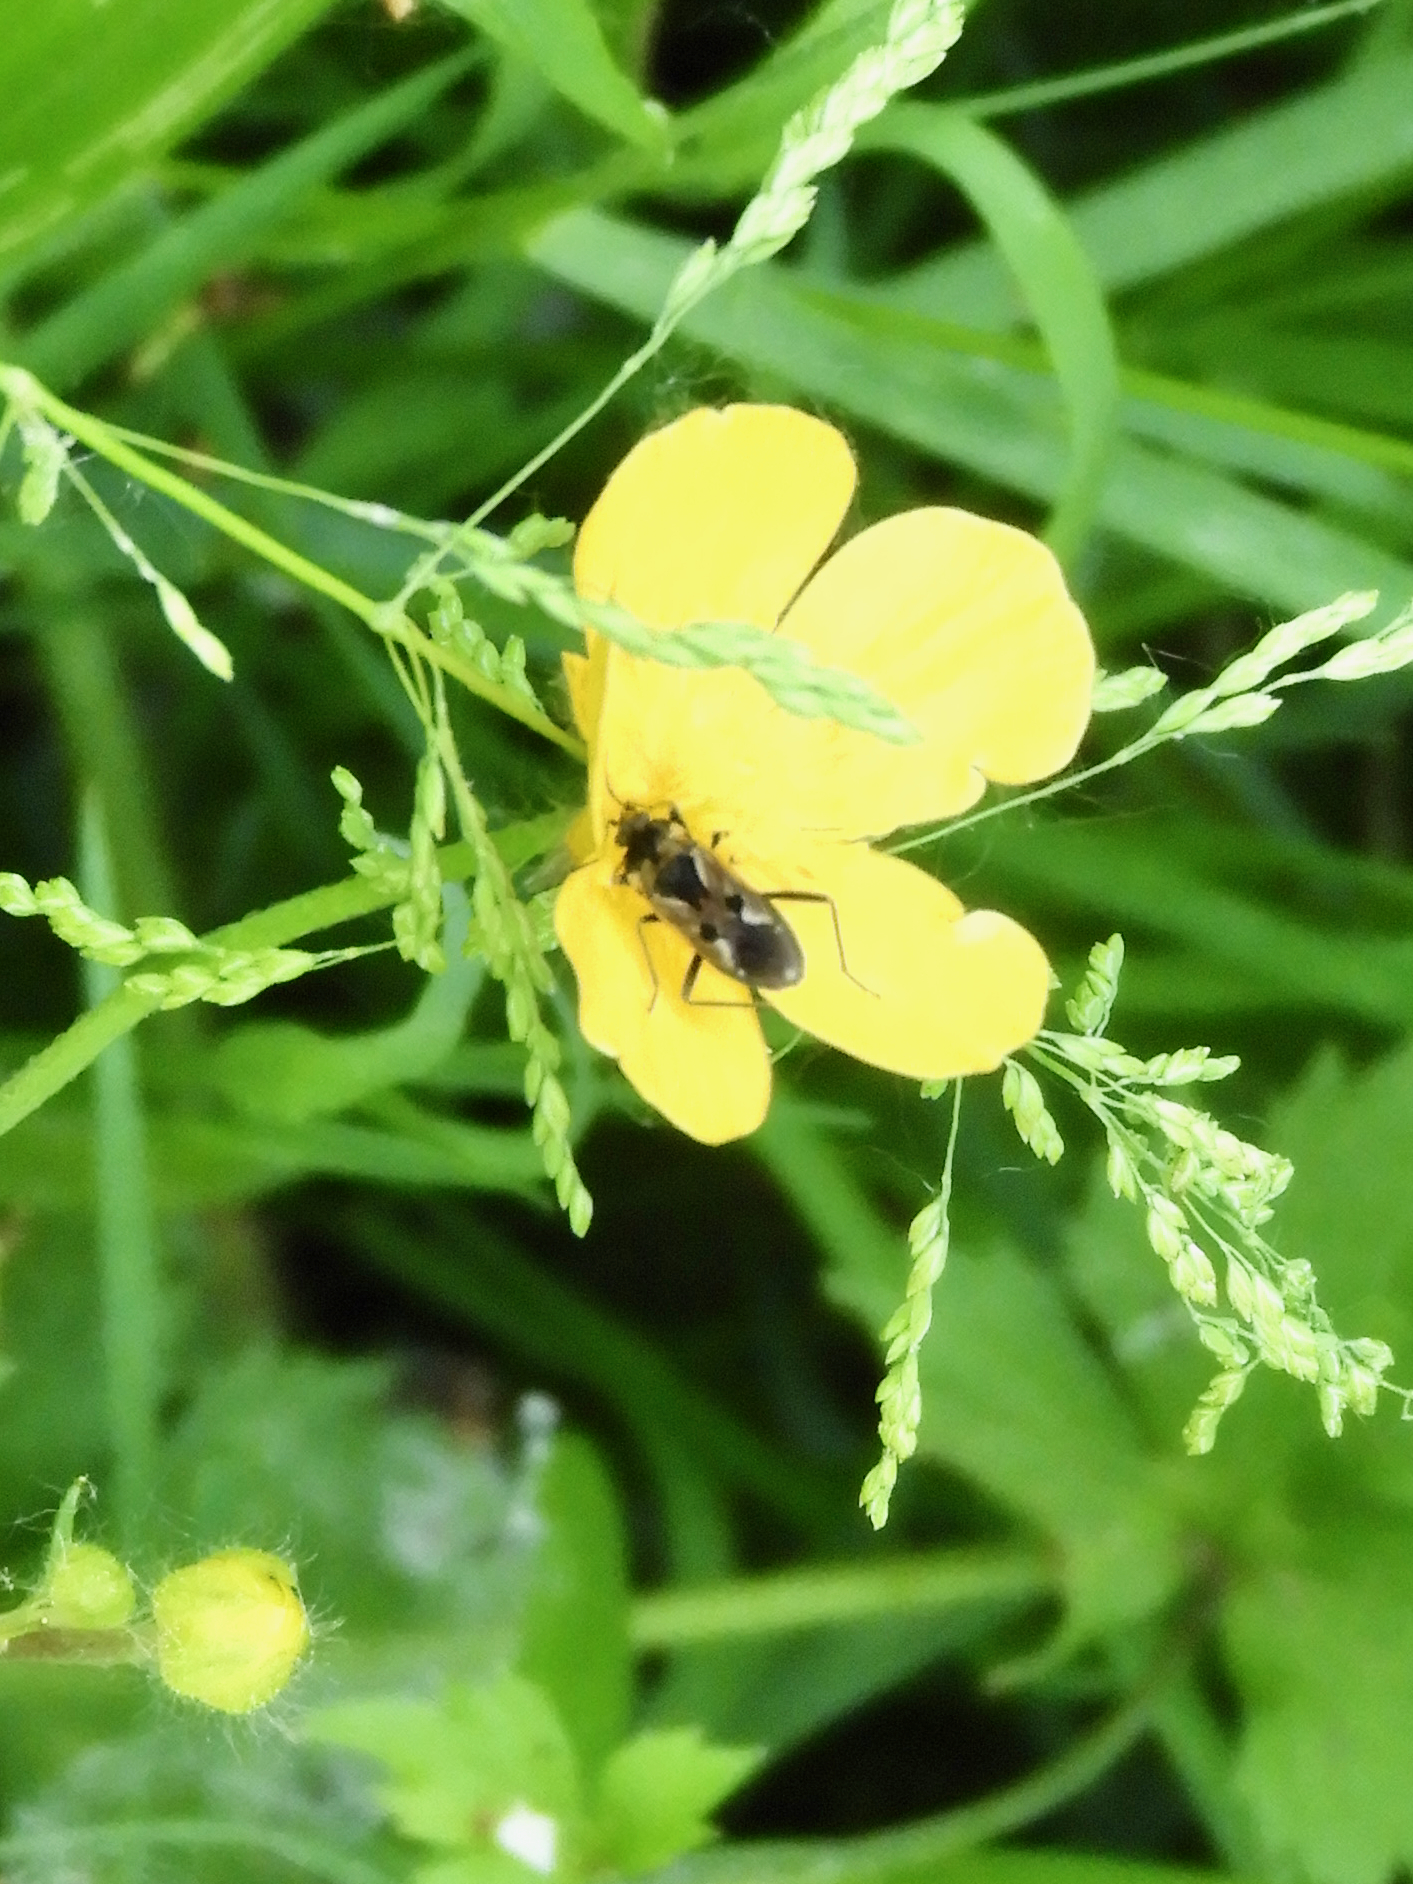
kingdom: Animalia
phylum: Arthropoda
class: Insecta
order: Hemiptera
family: Rhyparochromidae
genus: Rhyparochromus
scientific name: Rhyparochromus vulgaris
